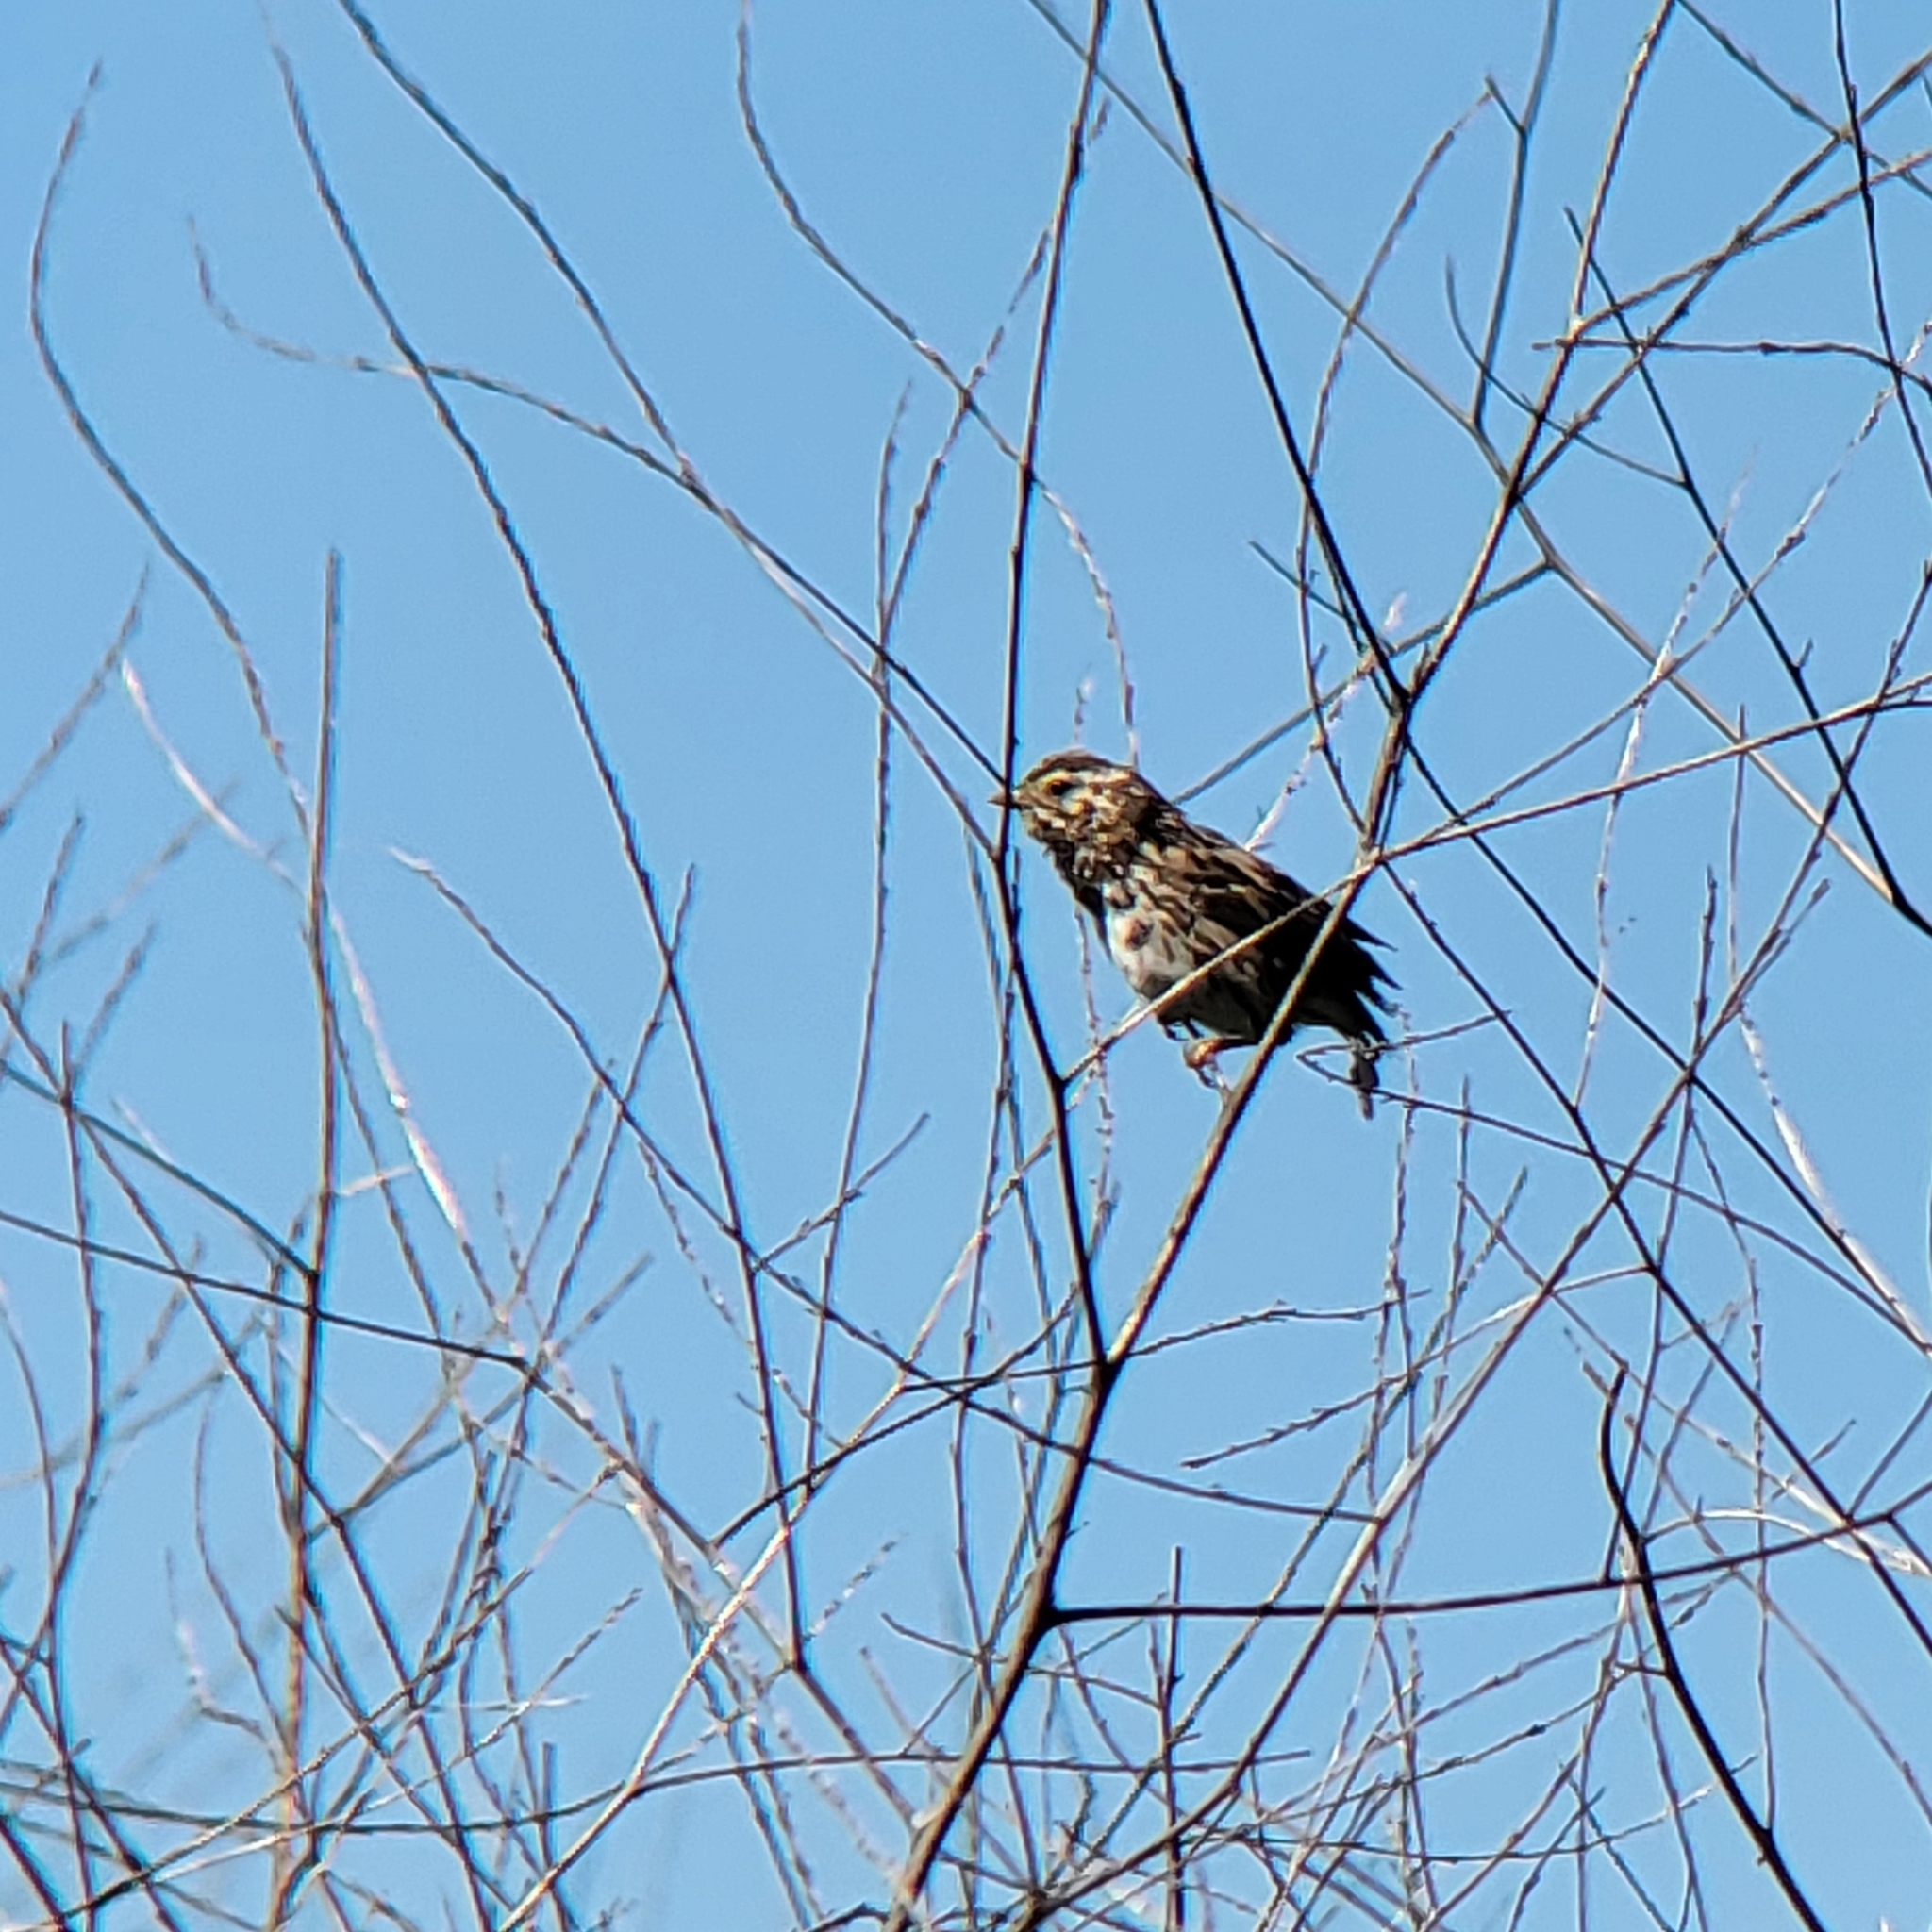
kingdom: Animalia
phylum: Chordata
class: Aves
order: Passeriformes
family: Passerellidae
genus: Passerculus
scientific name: Passerculus sandwichensis
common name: Savannah sparrow
